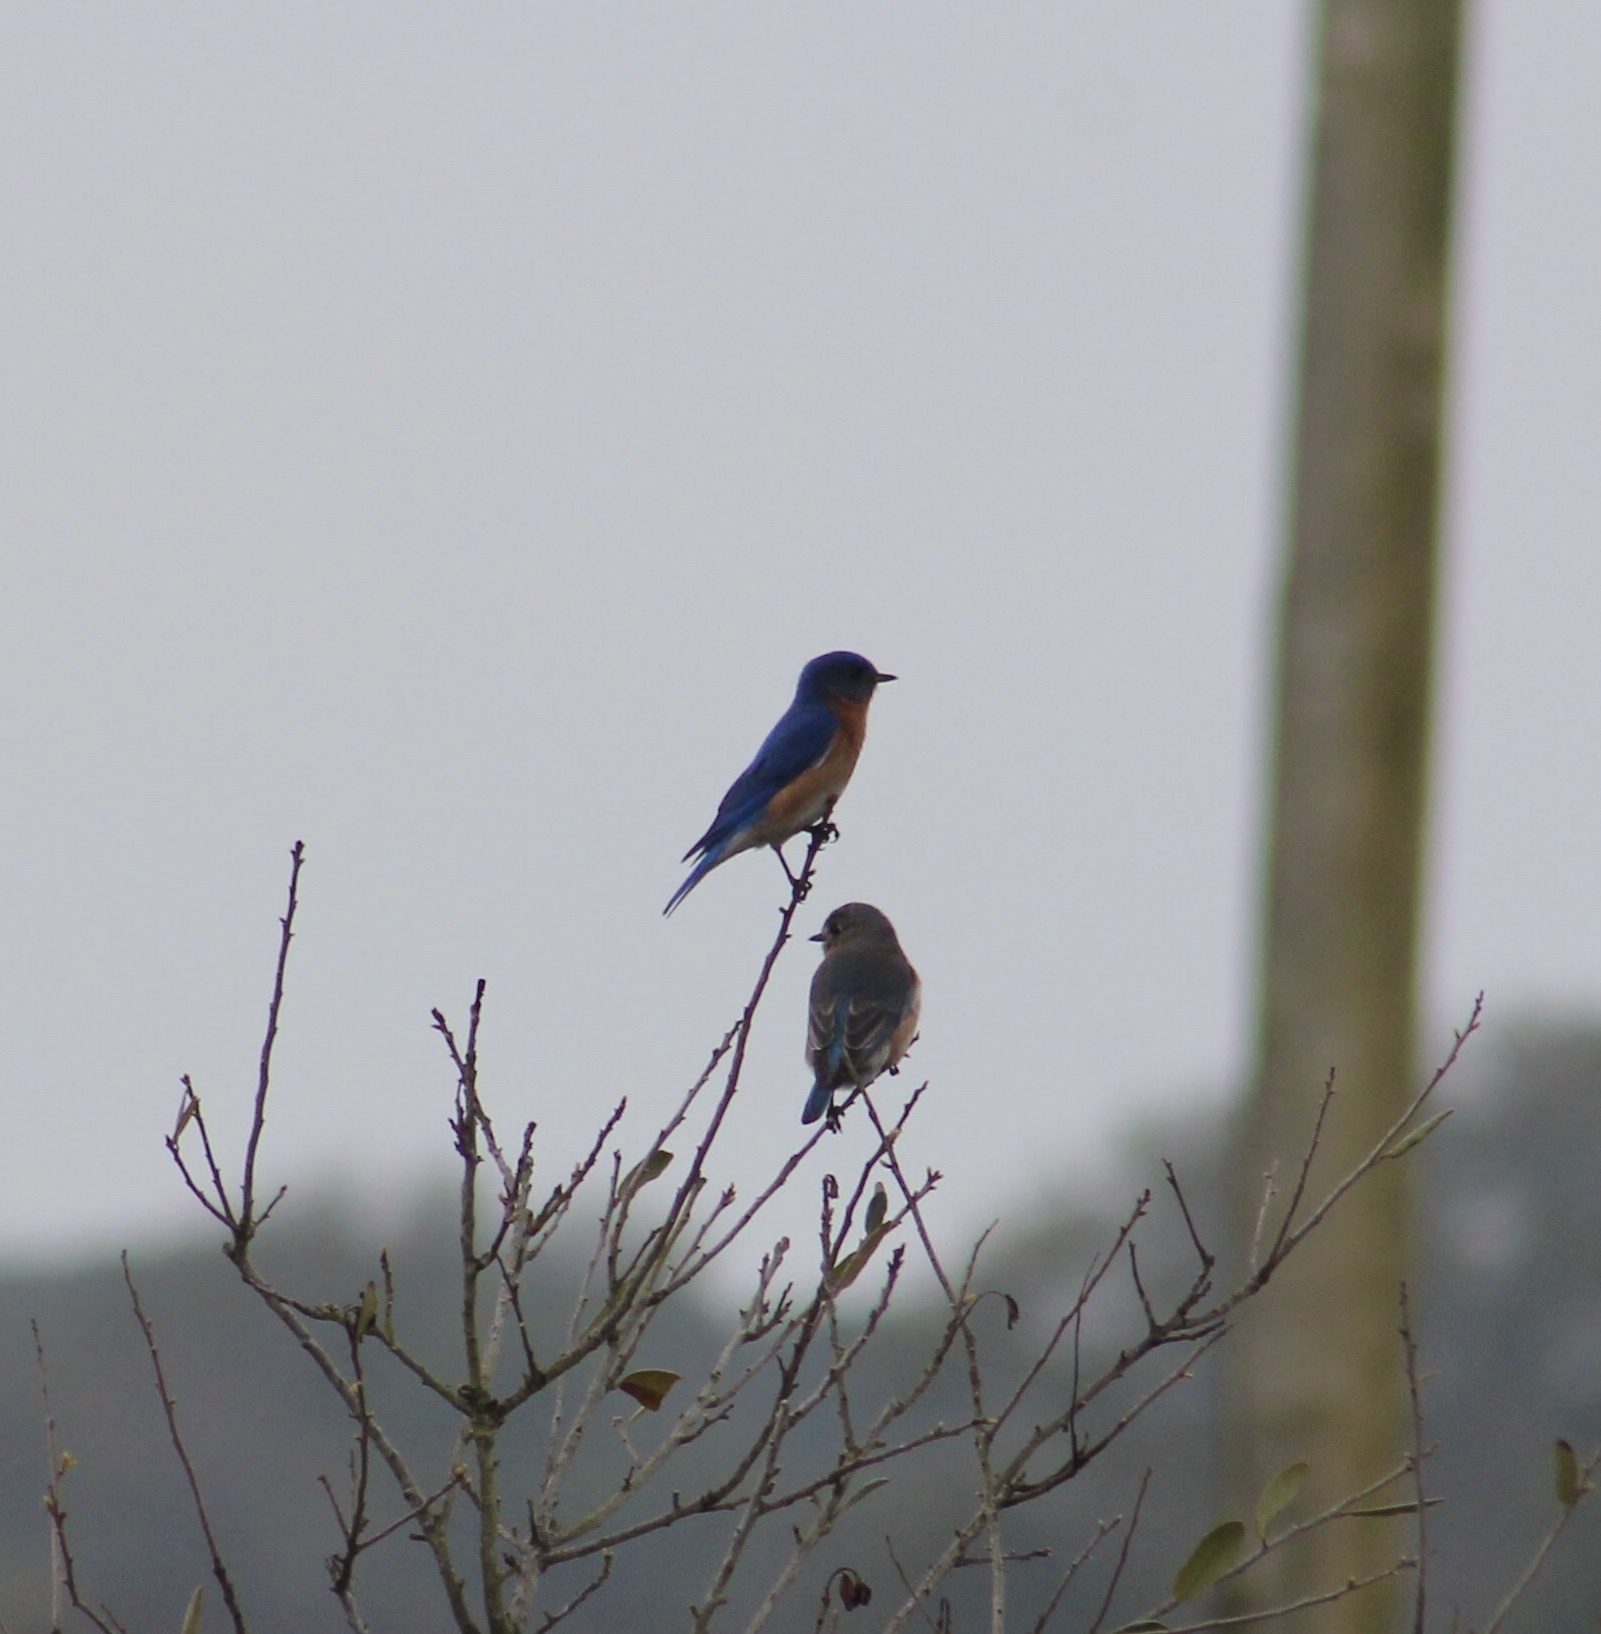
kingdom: Animalia
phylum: Chordata
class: Aves
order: Passeriformes
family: Turdidae
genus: Sialia
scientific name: Sialia sialis
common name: Eastern bluebird
